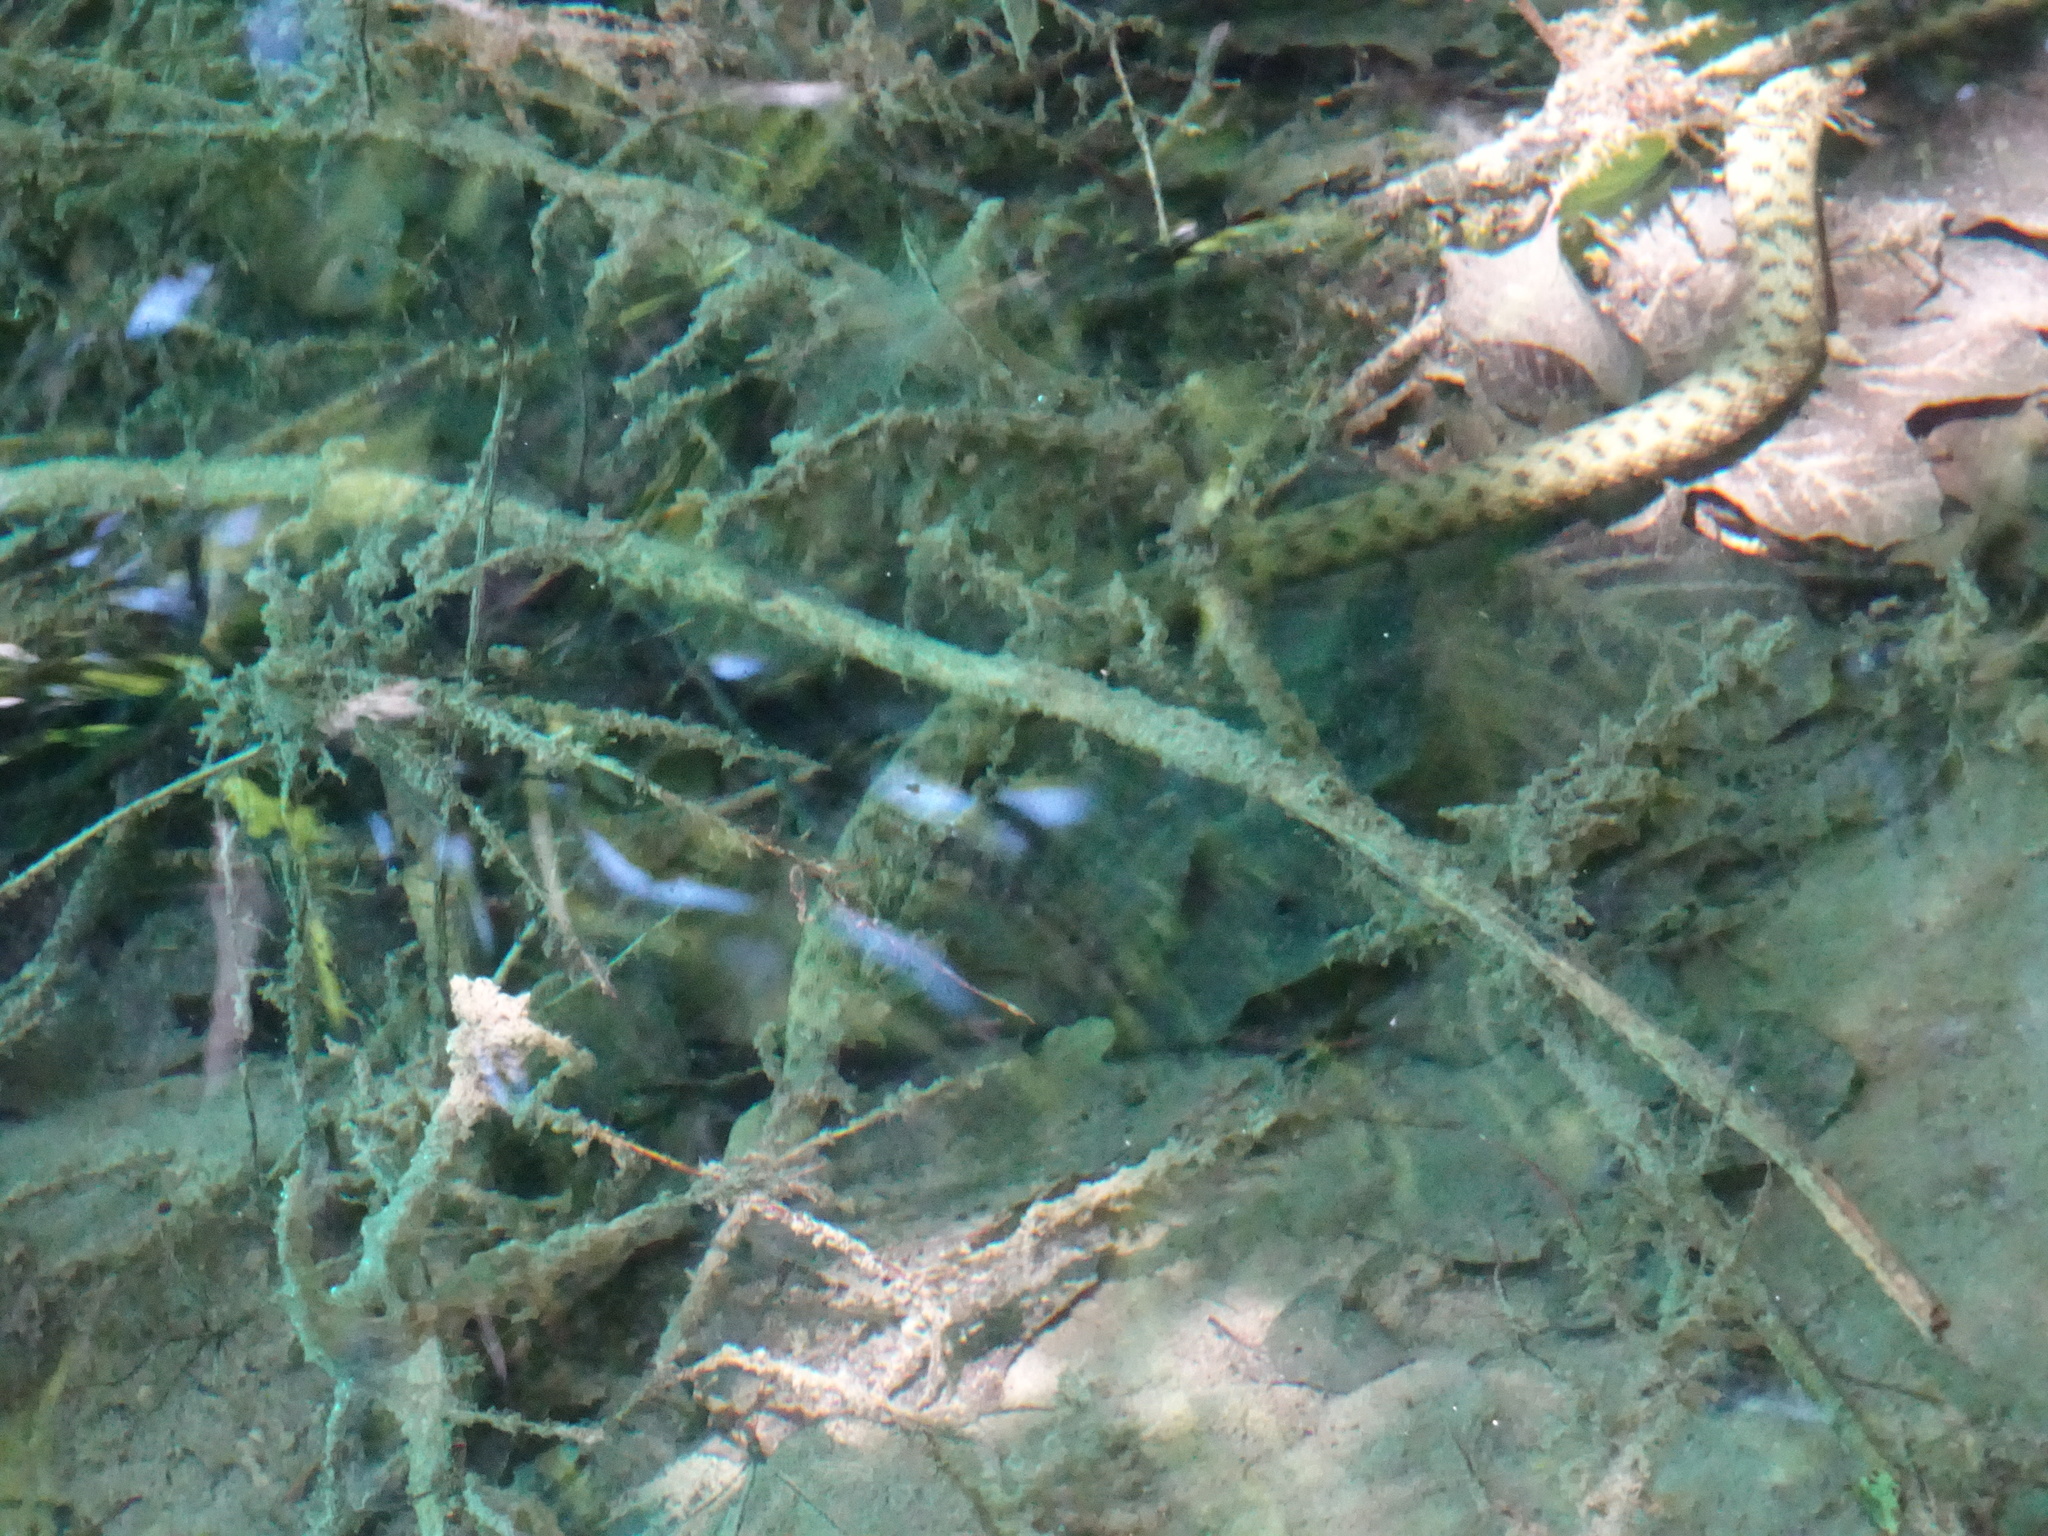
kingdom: Animalia
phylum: Chordata
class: Squamata
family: Colubridae
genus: Natrix
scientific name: Natrix tessellata
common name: Dice snake
